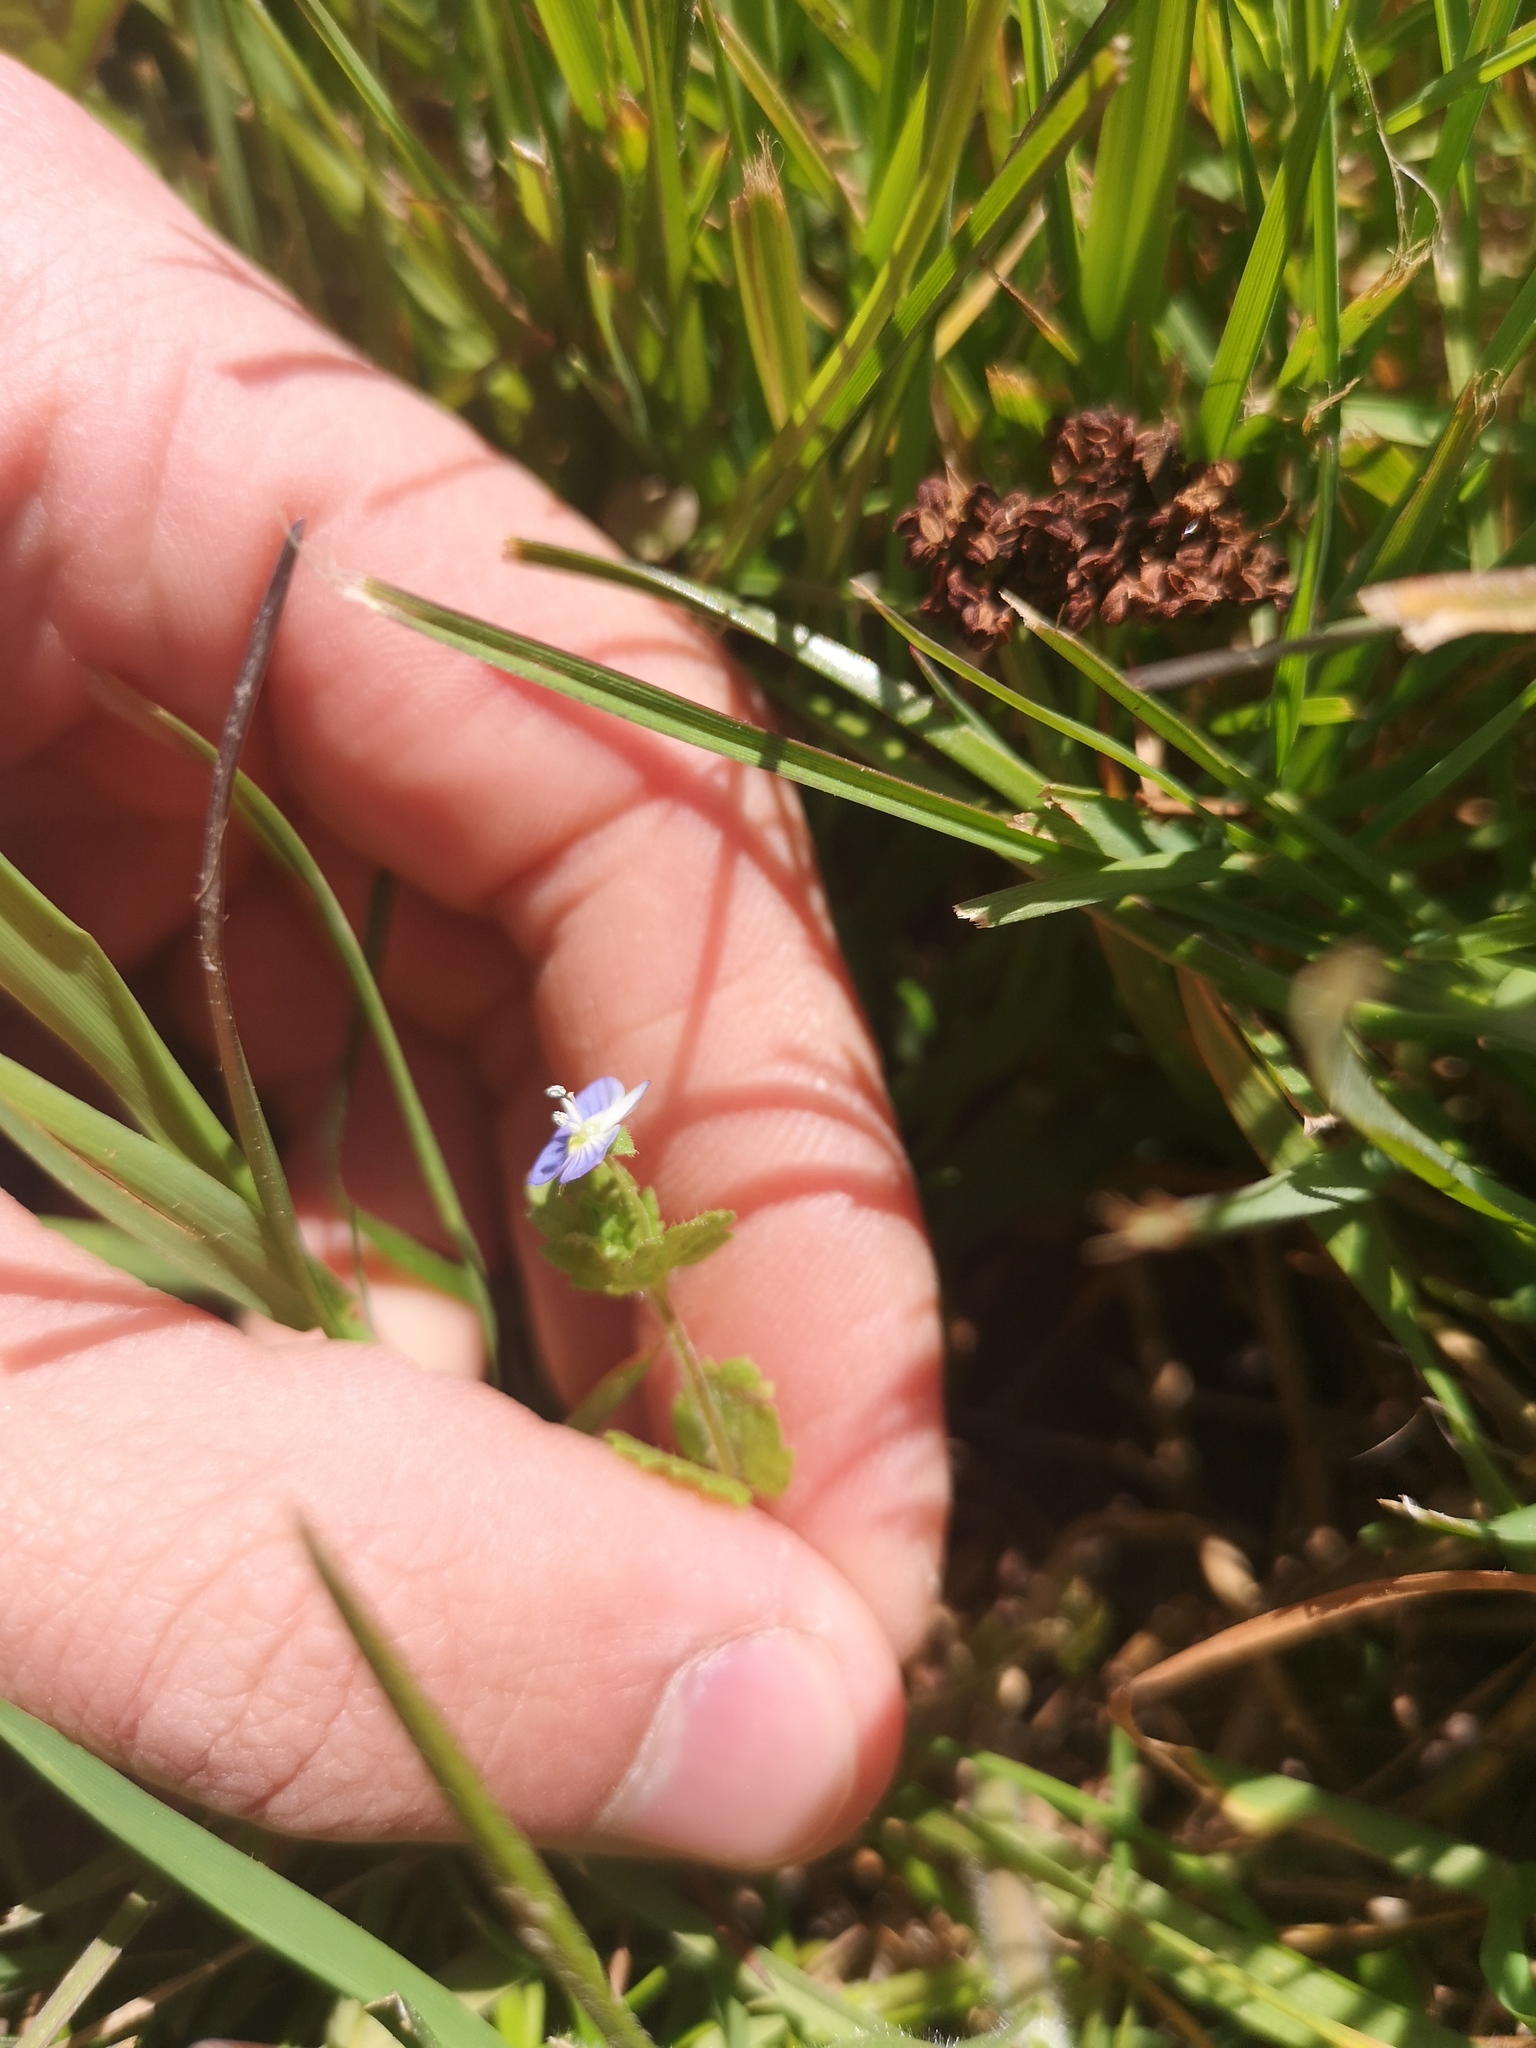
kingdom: Plantae
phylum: Tracheophyta
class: Magnoliopsida
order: Lamiales
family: Plantaginaceae
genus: Veronica
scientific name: Veronica persica
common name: Common field-speedwell
